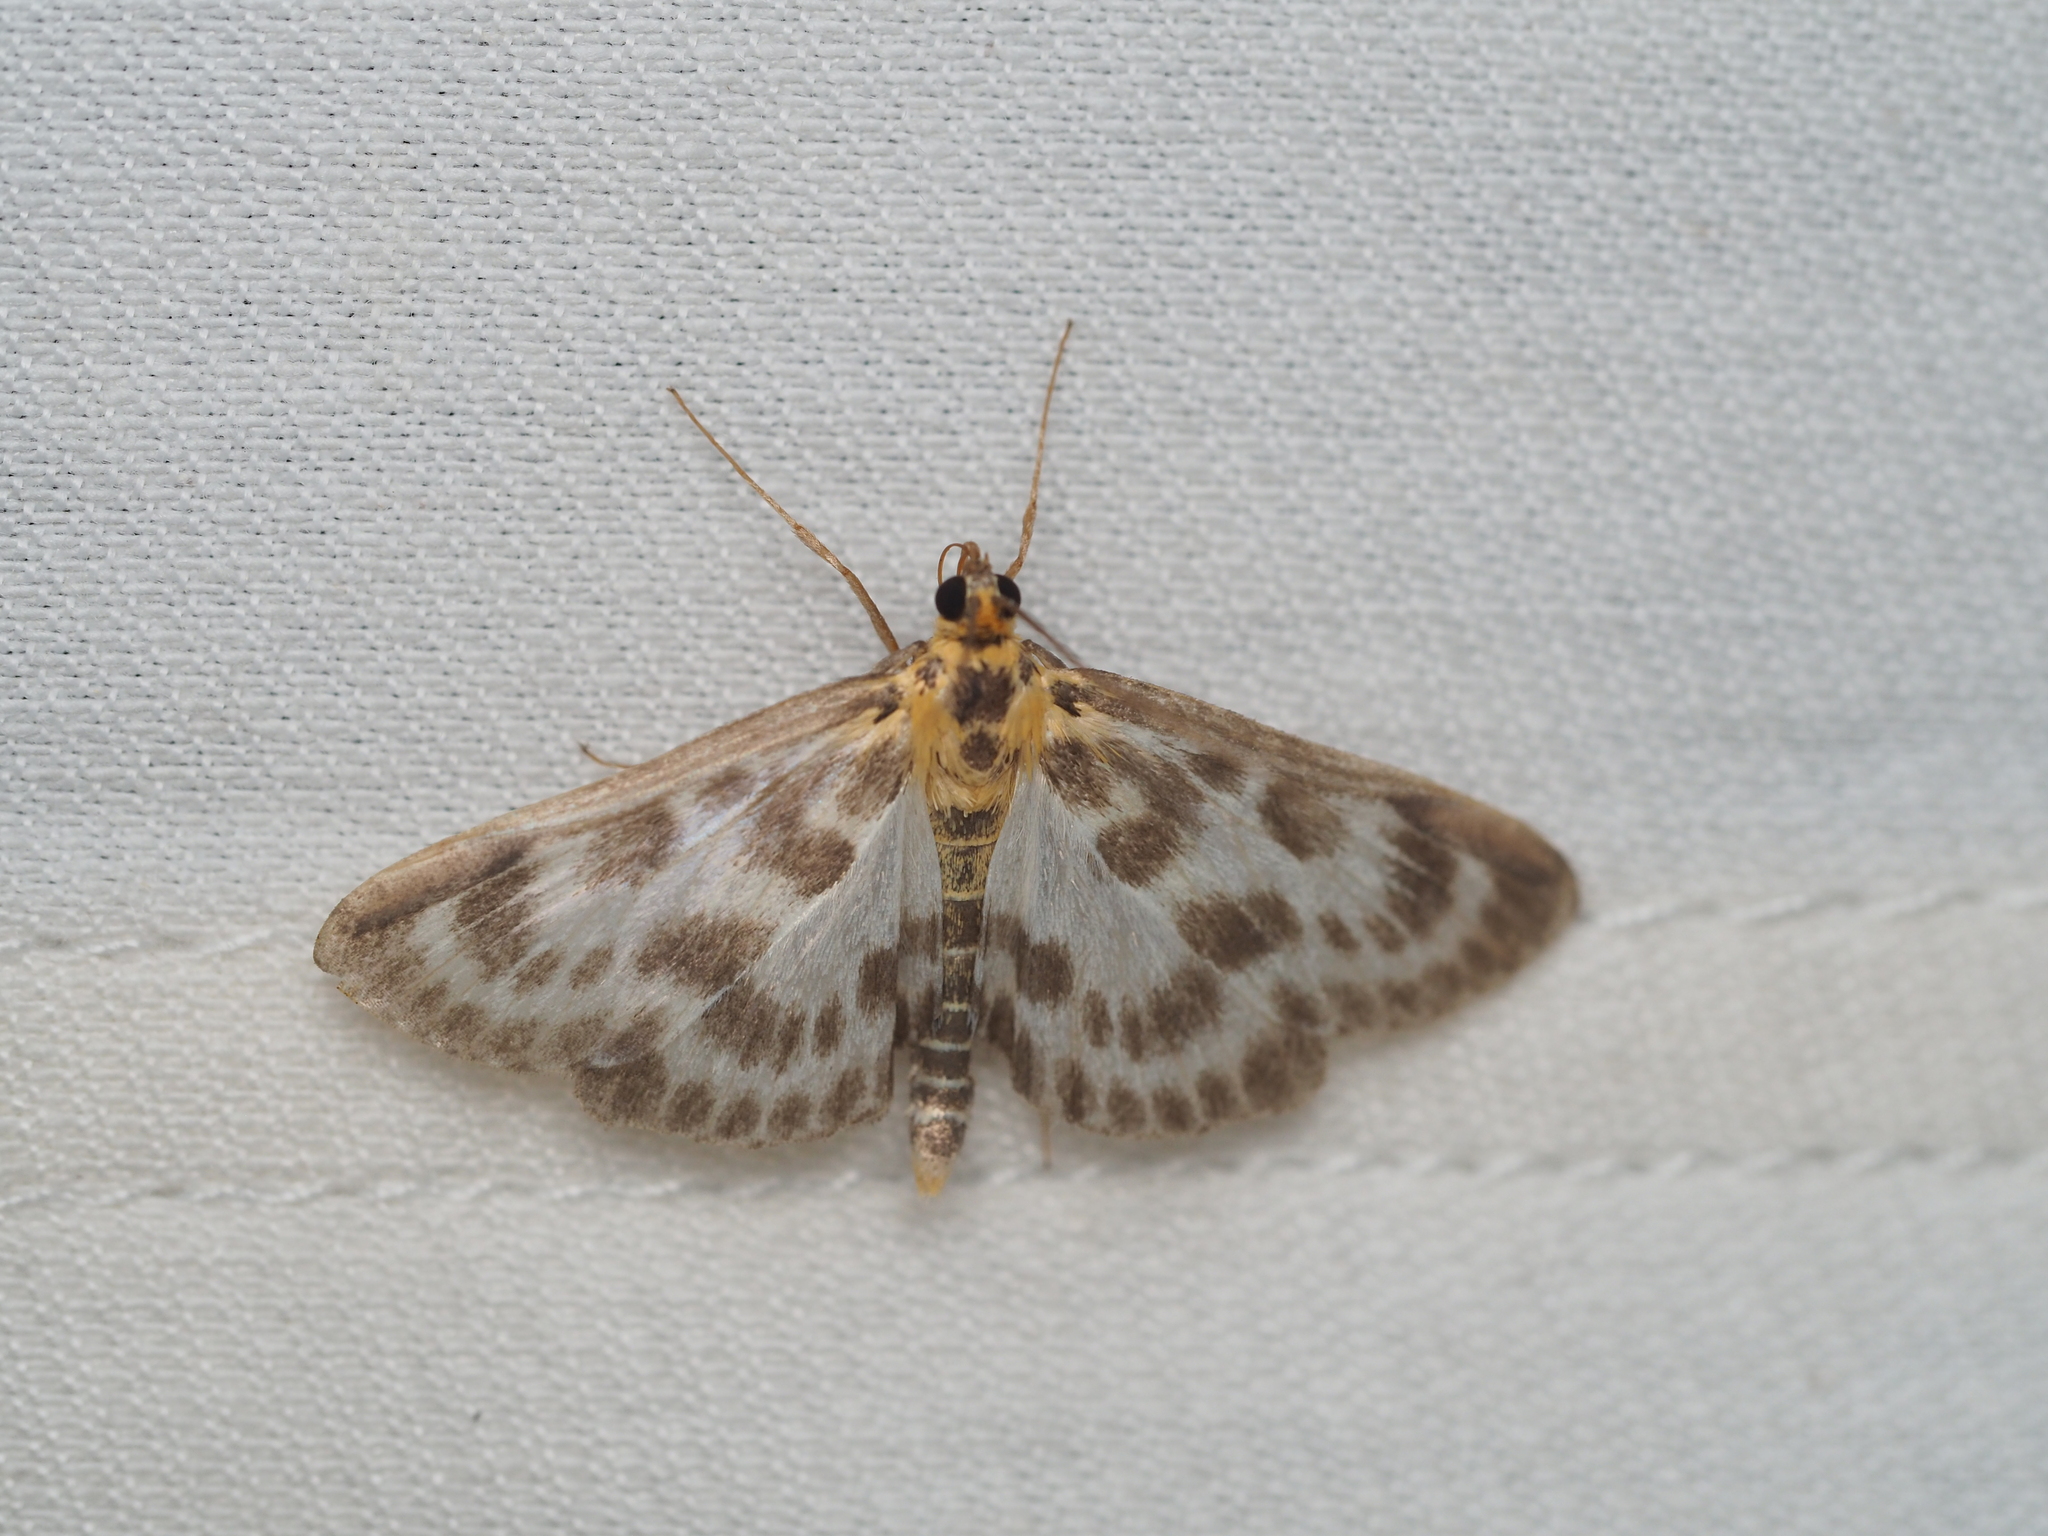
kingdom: Animalia
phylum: Arthropoda
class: Insecta
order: Lepidoptera
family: Crambidae
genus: Anania
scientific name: Anania hortulata
